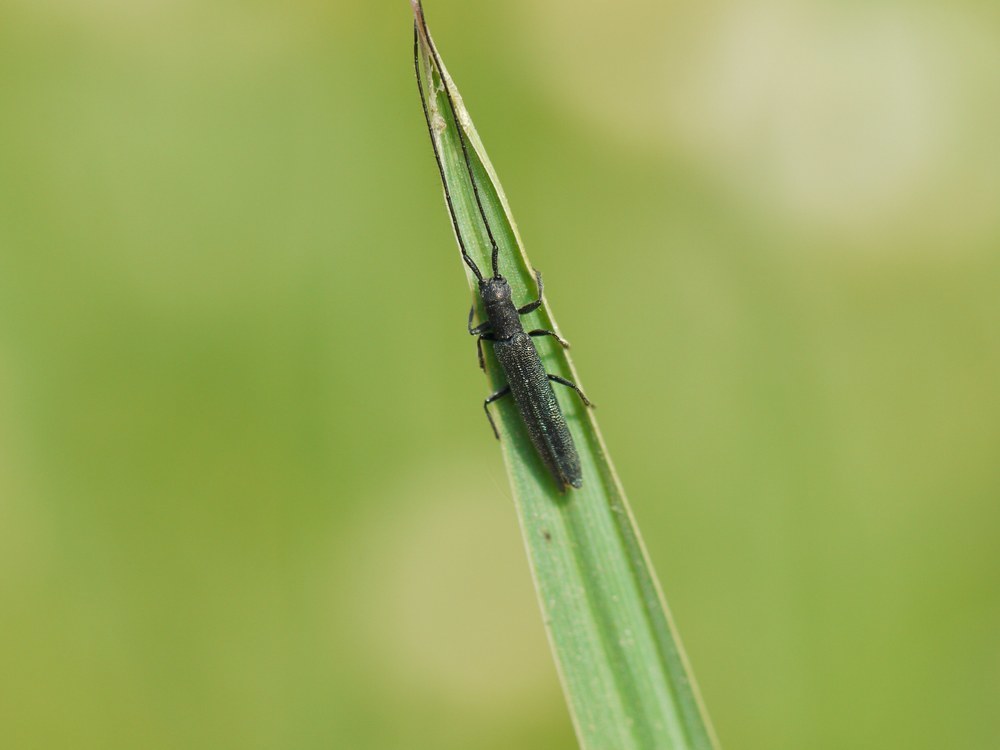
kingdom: Animalia
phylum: Arthropoda
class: Insecta
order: Coleoptera
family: Cerambycidae
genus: Theophilea
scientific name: Theophilea subcylindricollis
